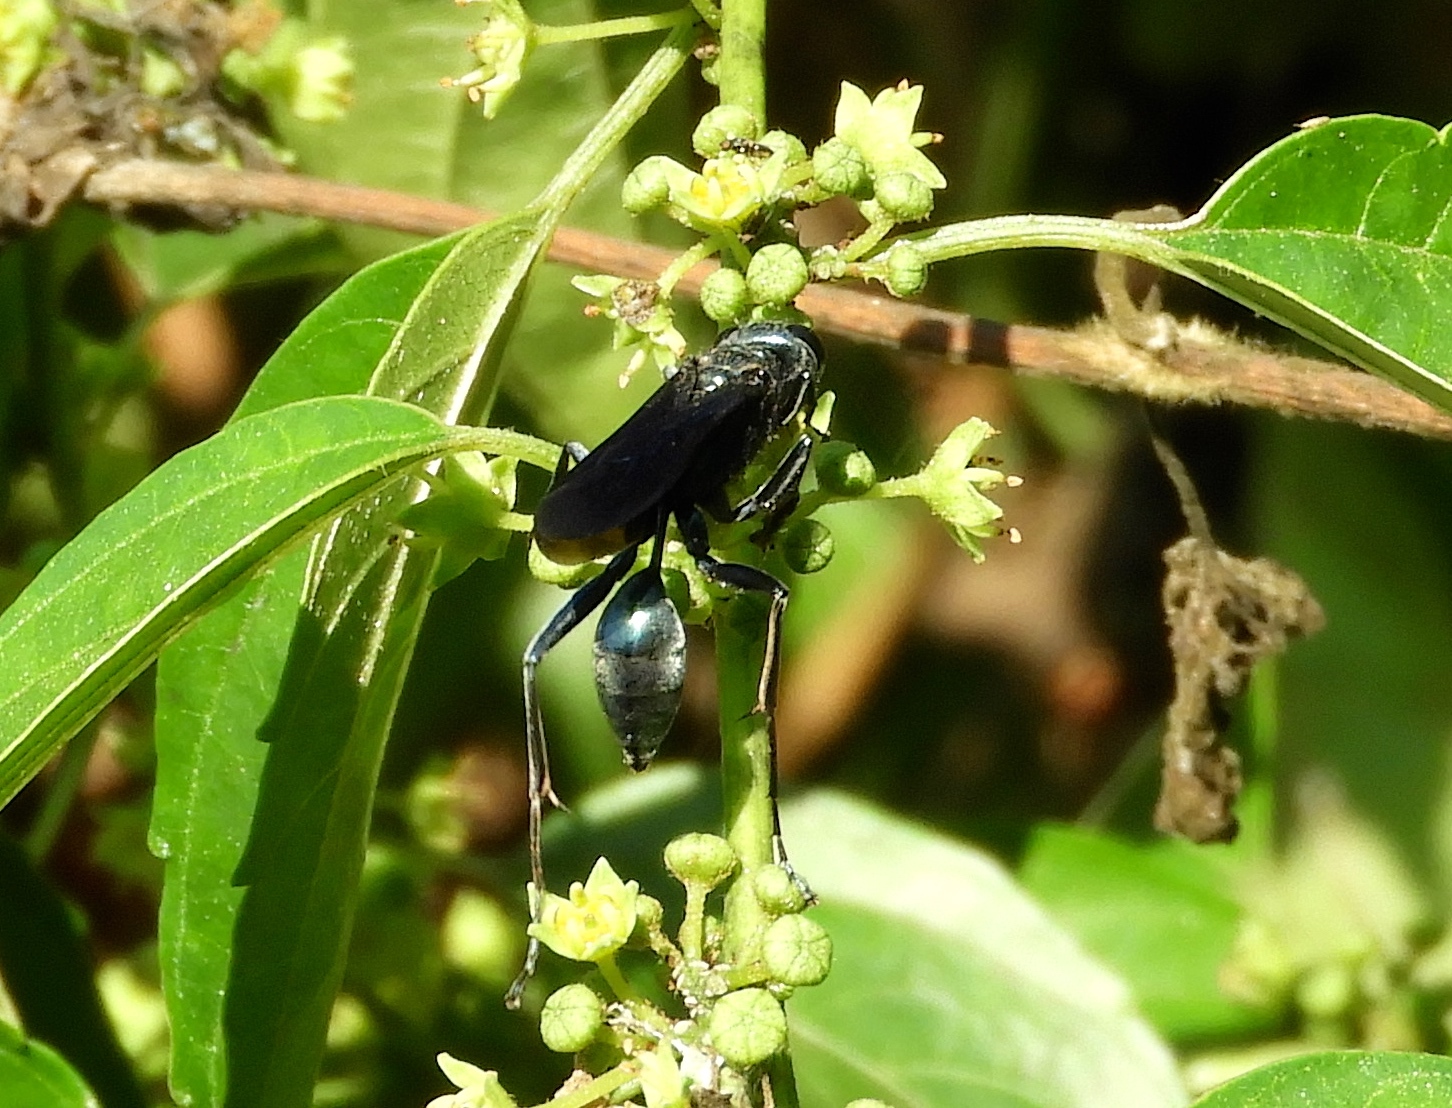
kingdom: Animalia
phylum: Arthropoda
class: Insecta
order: Hymenoptera
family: Sphecidae
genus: Chalybion
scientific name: Chalybion
